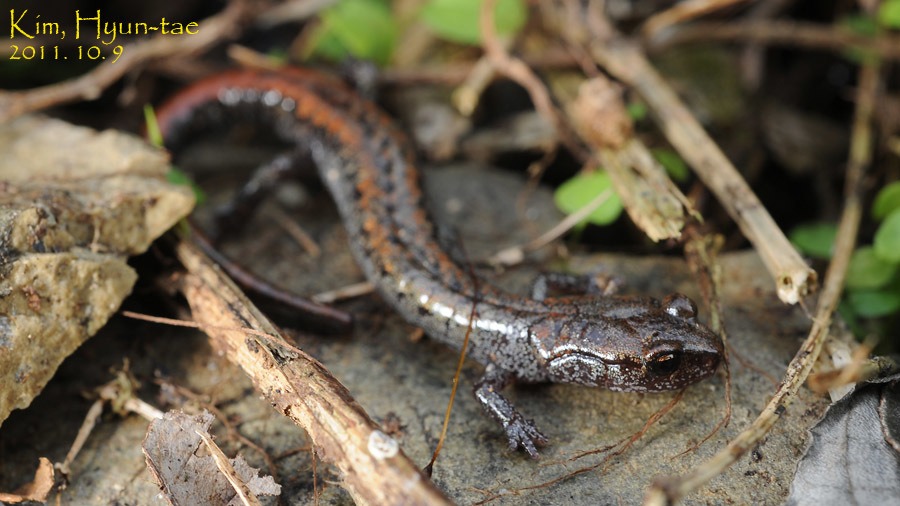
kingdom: Animalia
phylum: Chordata
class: Amphibia
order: Caudata
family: Plethodontidae
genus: Karsenia
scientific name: Karsenia koreana
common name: Korean crevice salamander
